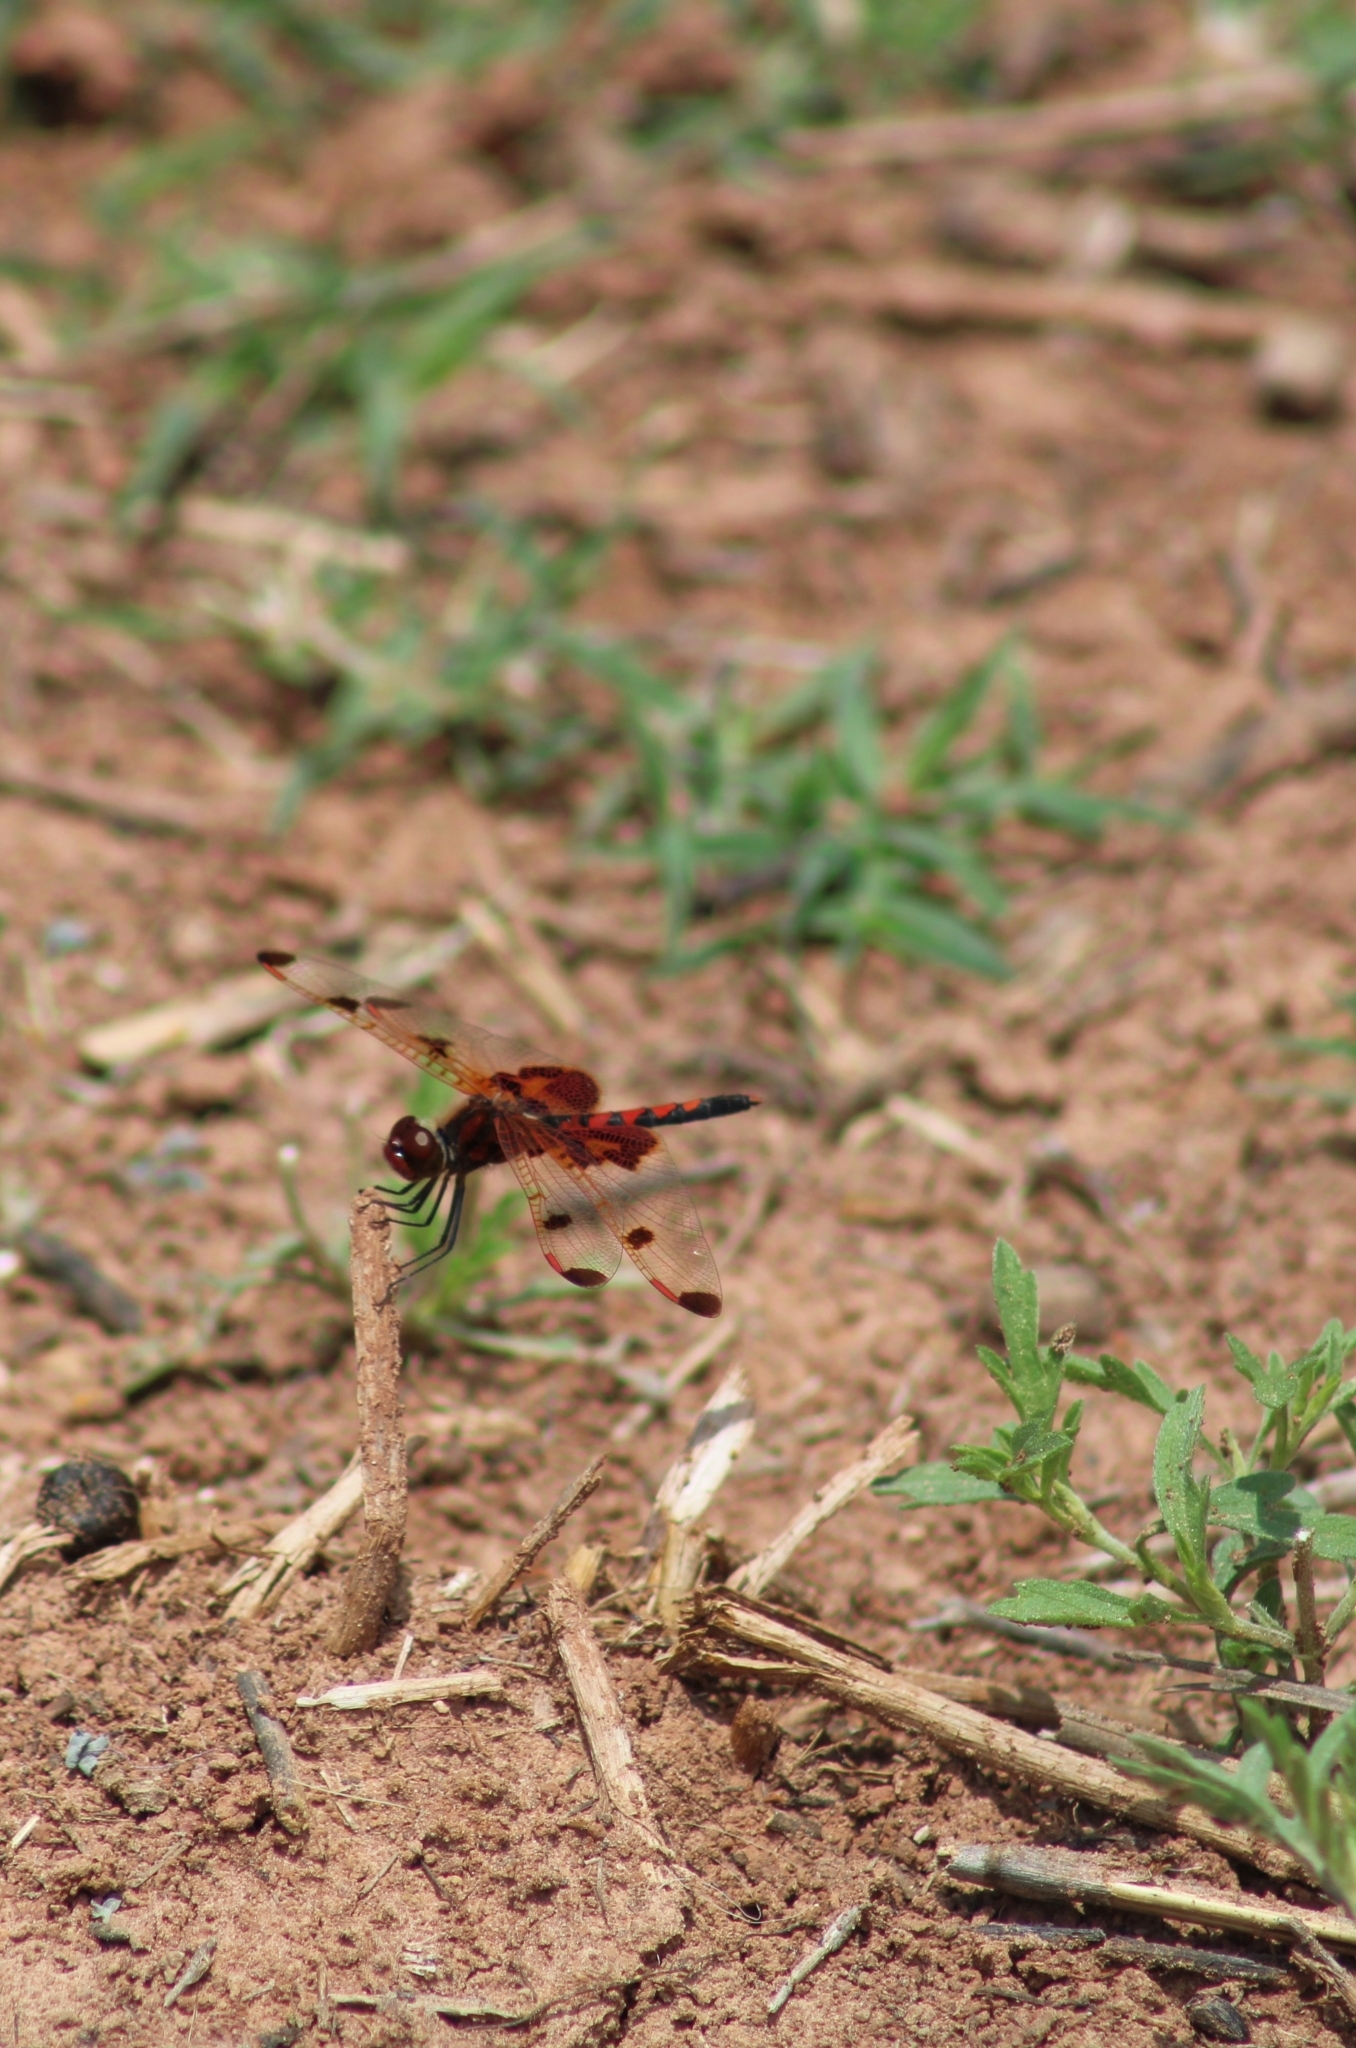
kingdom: Animalia
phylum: Arthropoda
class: Insecta
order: Odonata
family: Libellulidae
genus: Celithemis
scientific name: Celithemis elisa
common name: Calico pennant
